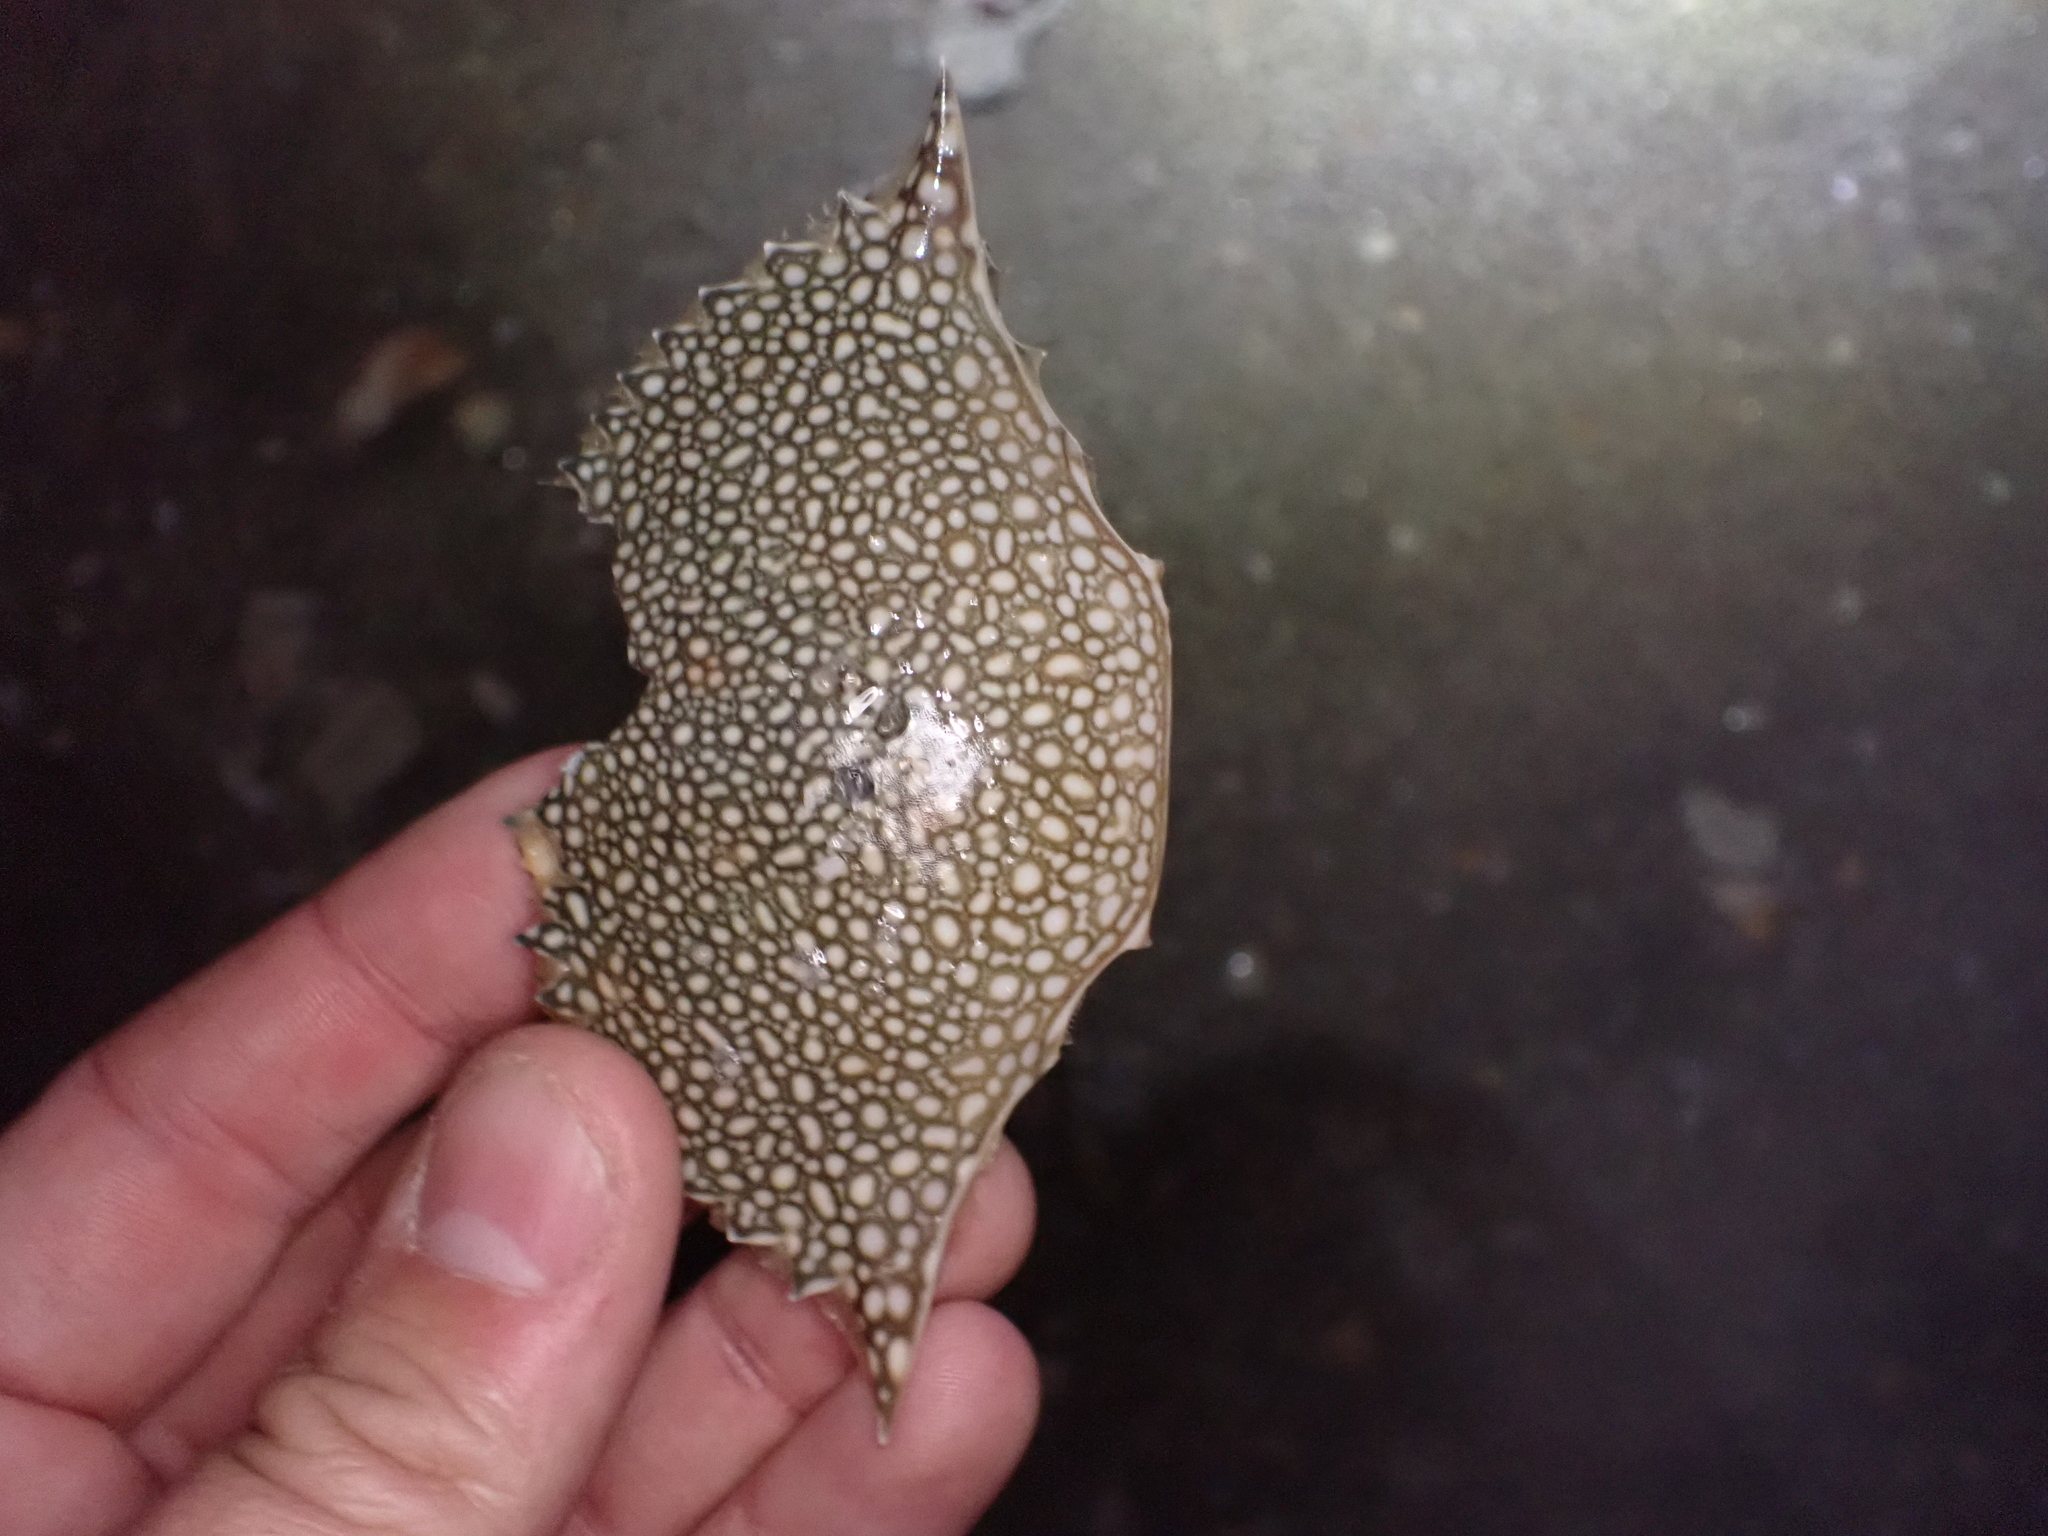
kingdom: Animalia
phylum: Arthropoda
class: Malacostraca
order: Decapoda
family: Portunidae
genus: Arenaeus
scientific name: Arenaeus cribrarius
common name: Speckled crab
